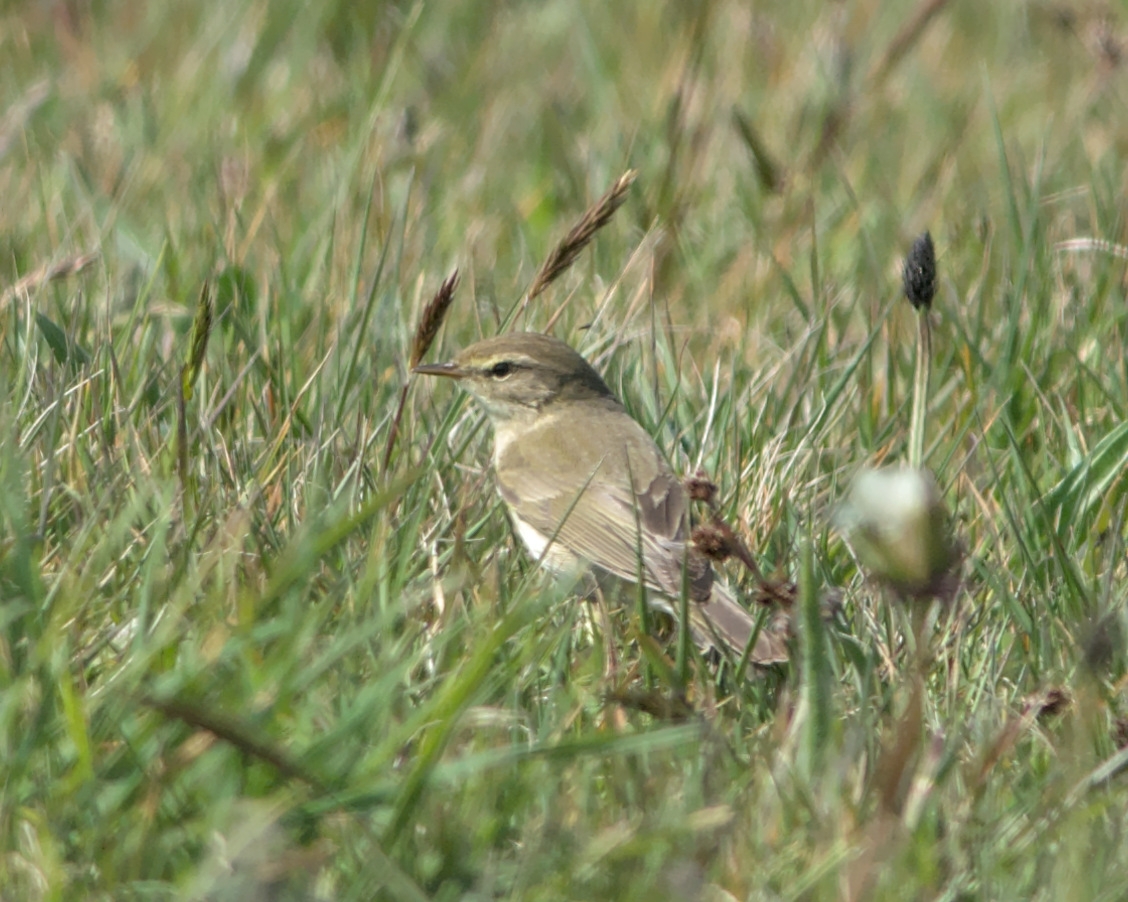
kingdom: Animalia
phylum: Chordata
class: Aves
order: Passeriformes
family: Phylloscopidae
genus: Phylloscopus
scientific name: Phylloscopus trochilus
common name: Willow warbler
